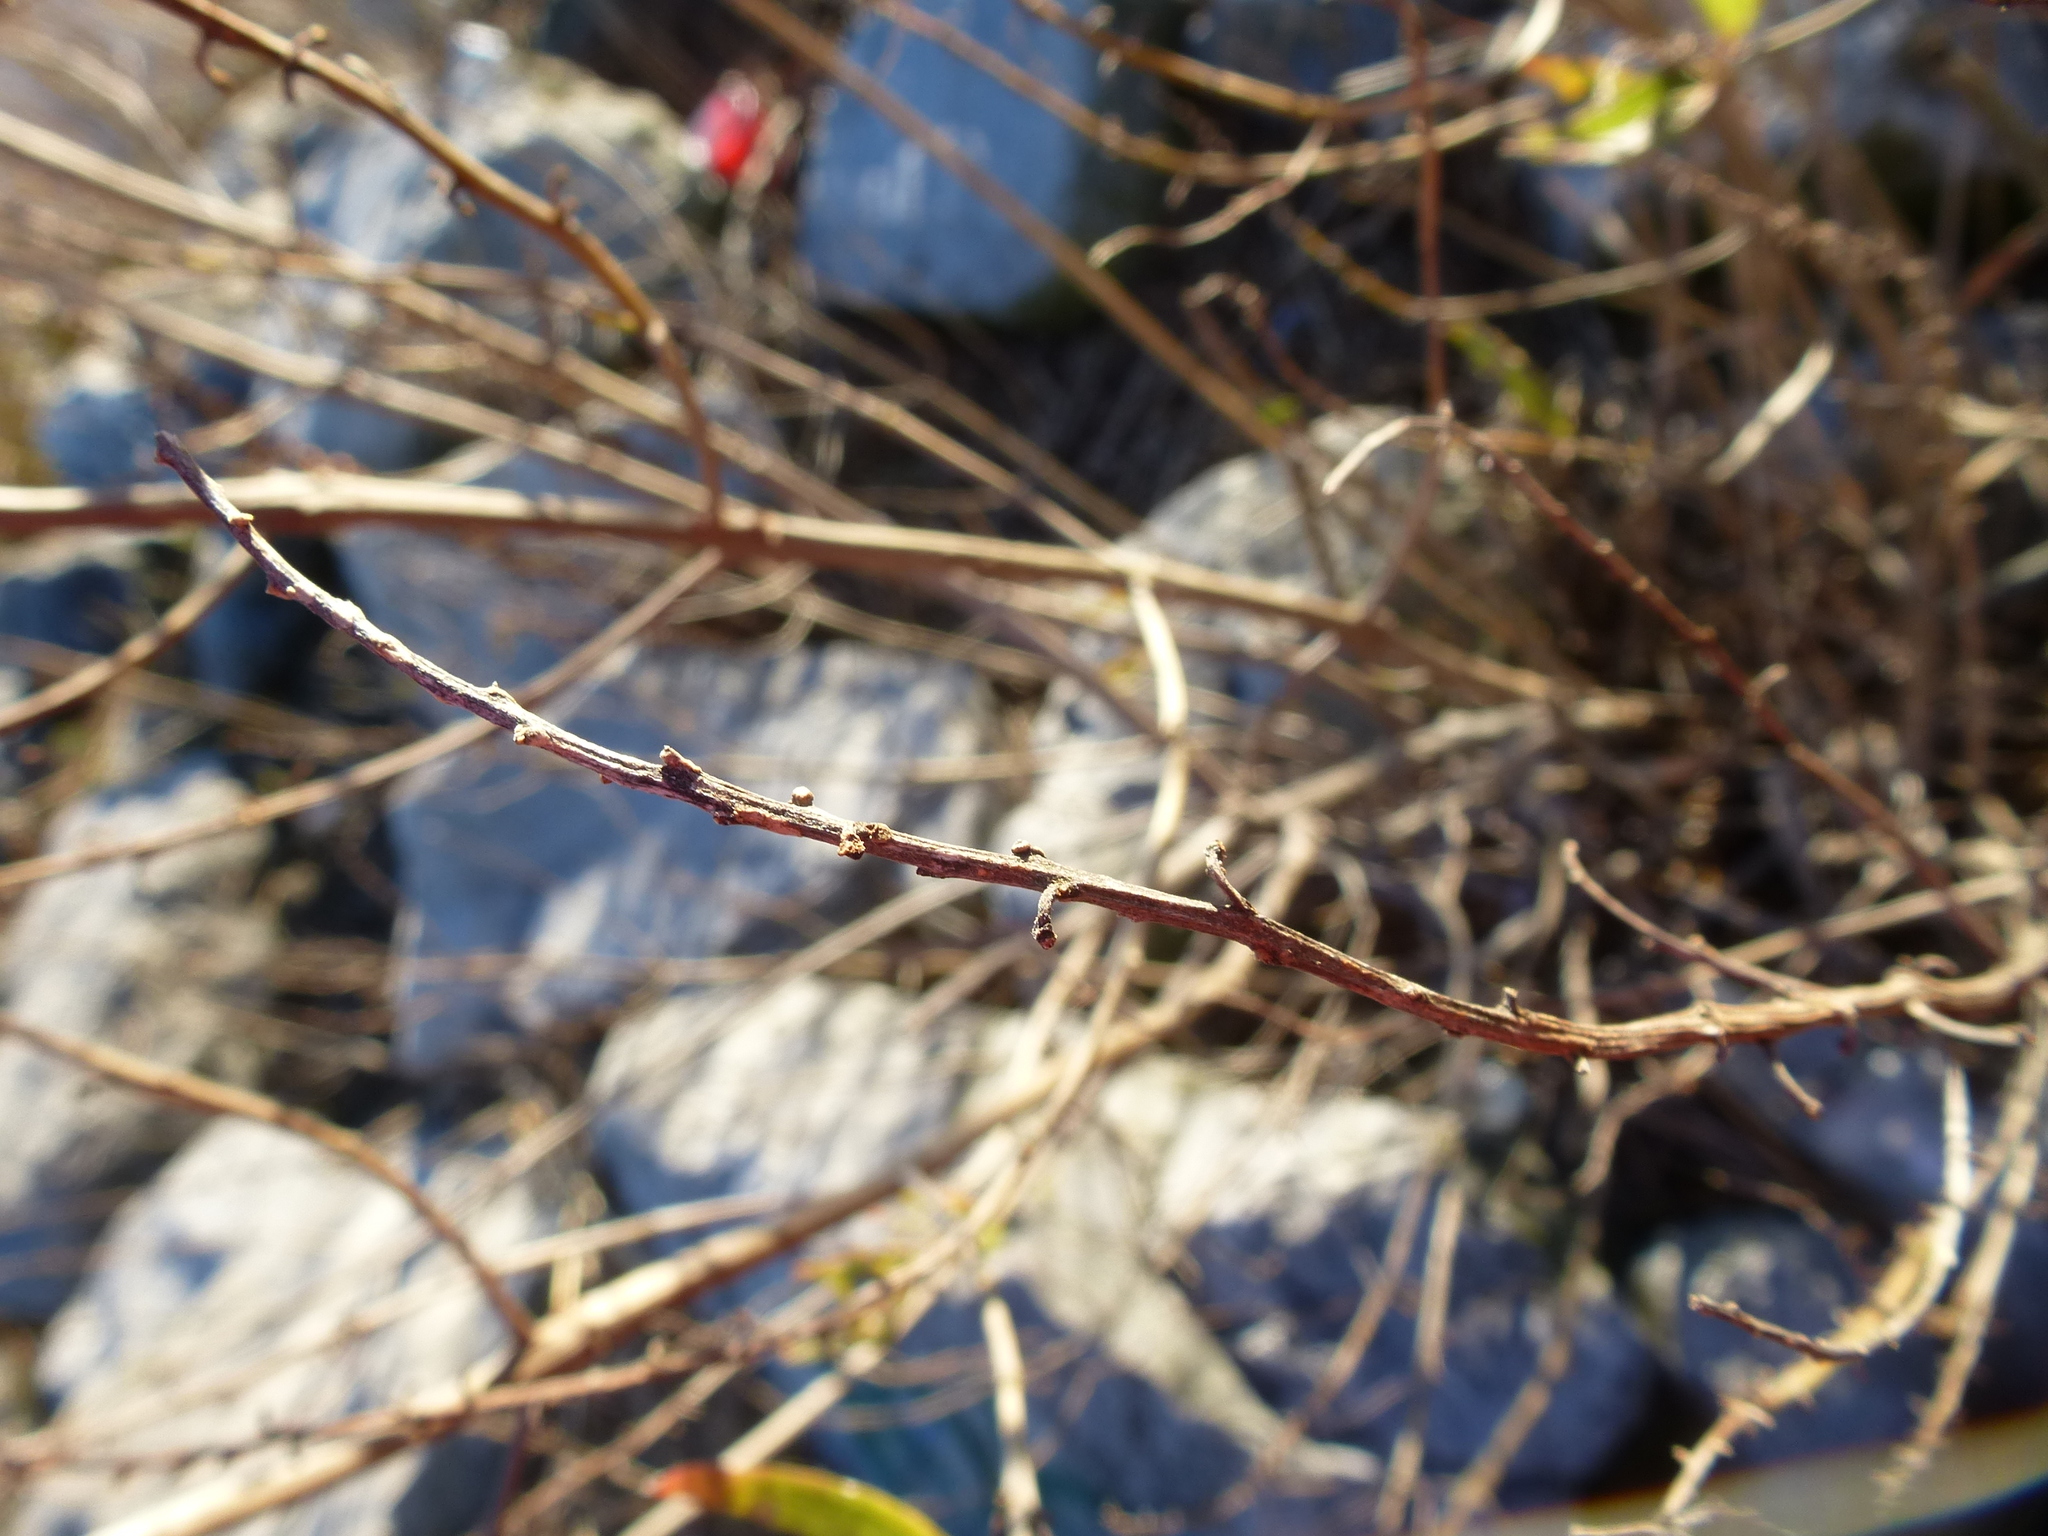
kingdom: Plantae
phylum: Tracheophyta
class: Magnoliopsida
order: Asterales
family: Asteraceae
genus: Iva
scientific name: Iva frutescens
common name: Big-leaved marsh-elder
